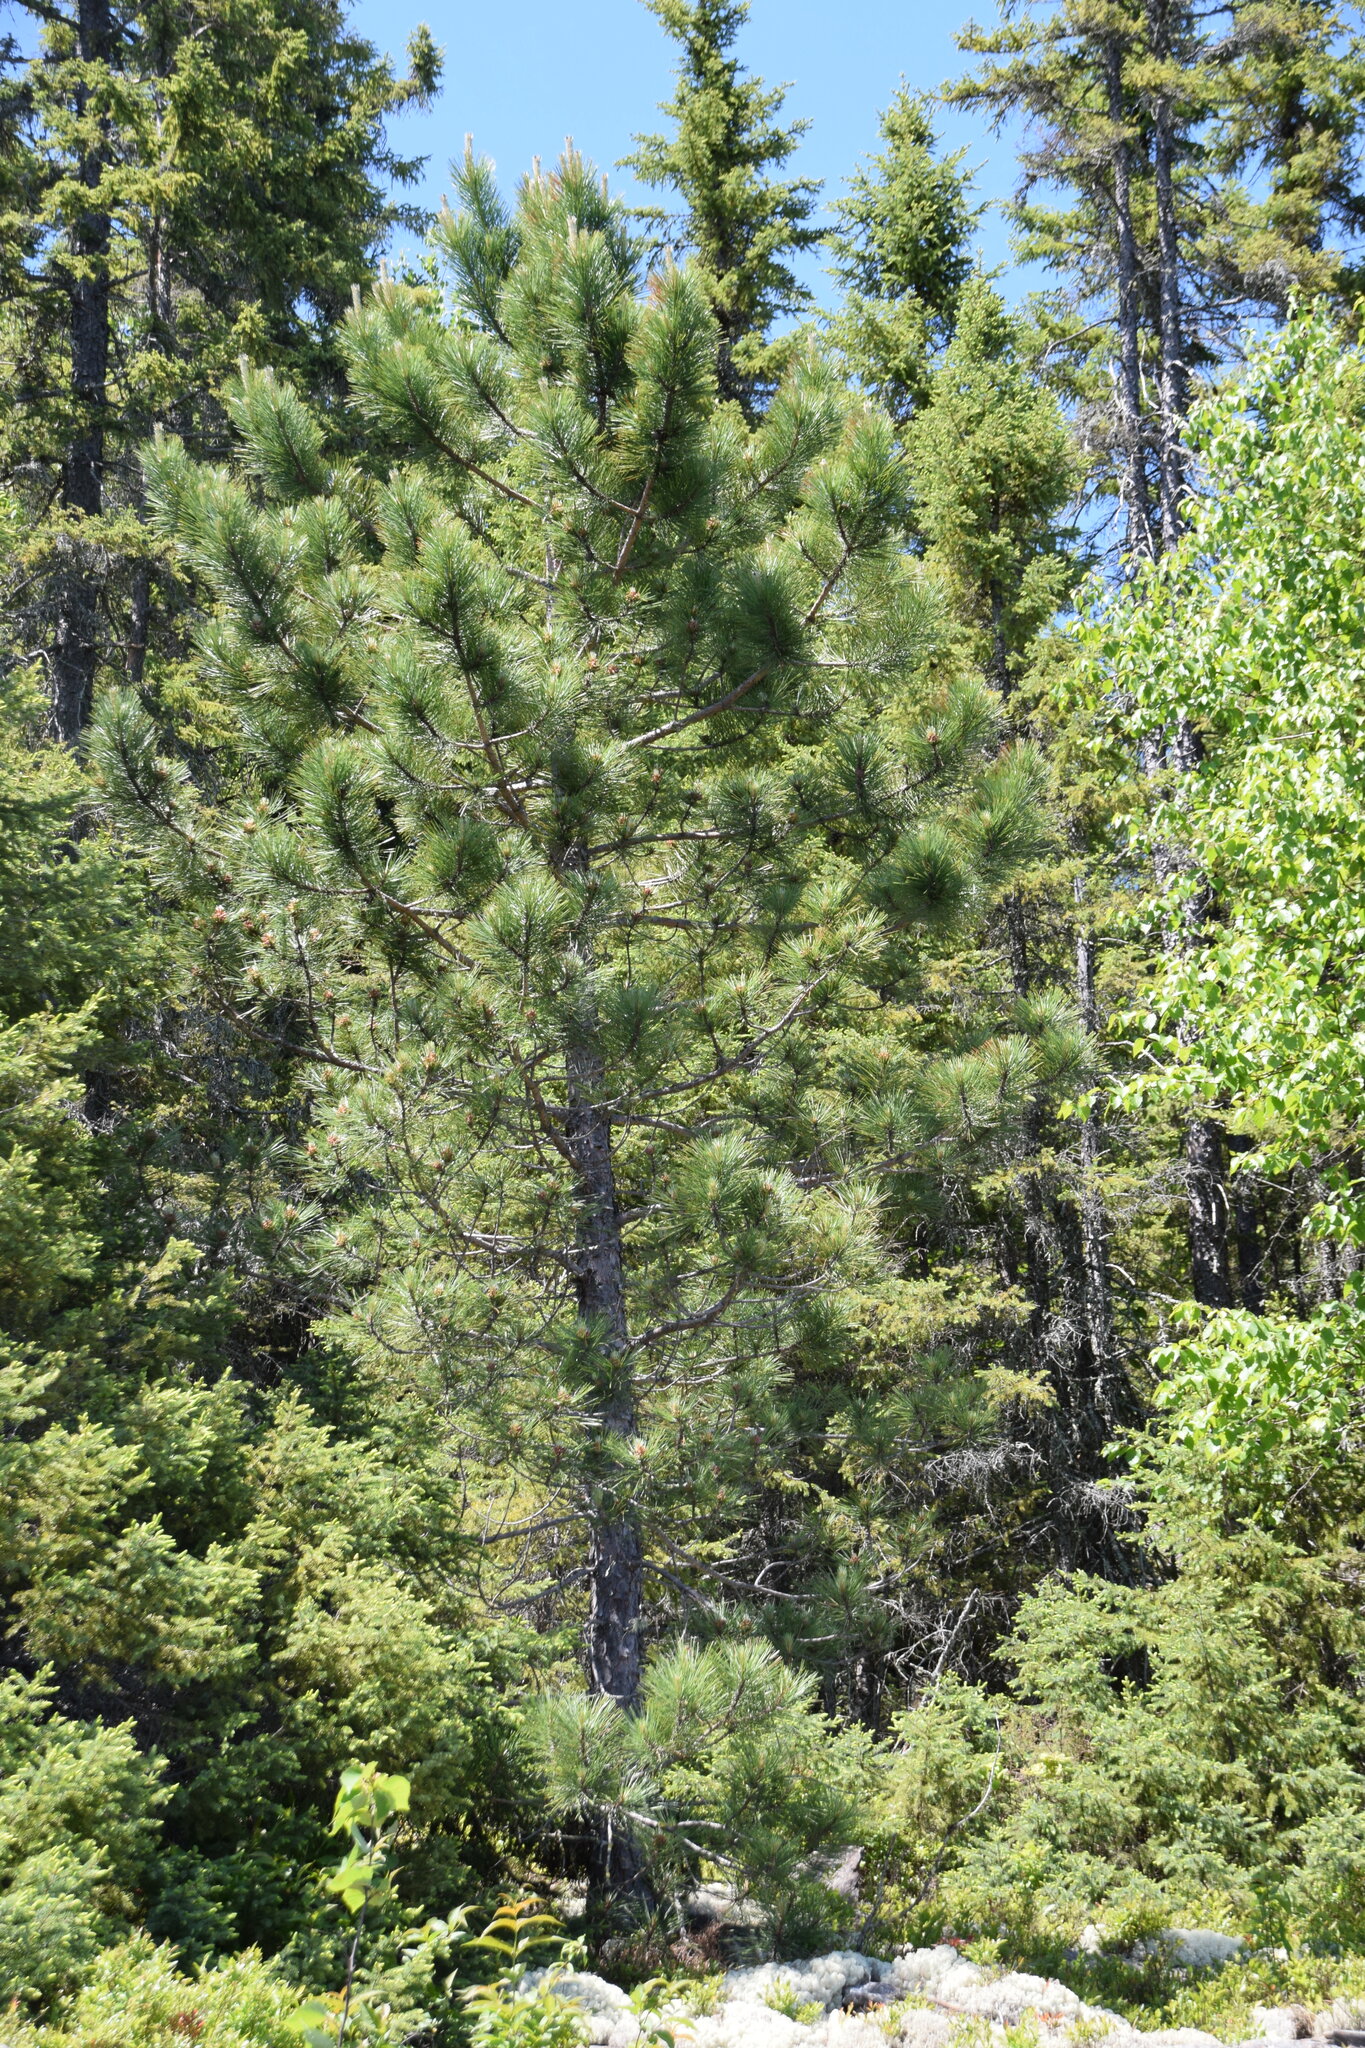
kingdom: Plantae
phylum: Tracheophyta
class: Pinopsida
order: Pinales
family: Pinaceae
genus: Pinus
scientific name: Pinus resinosa
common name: Norway pine
